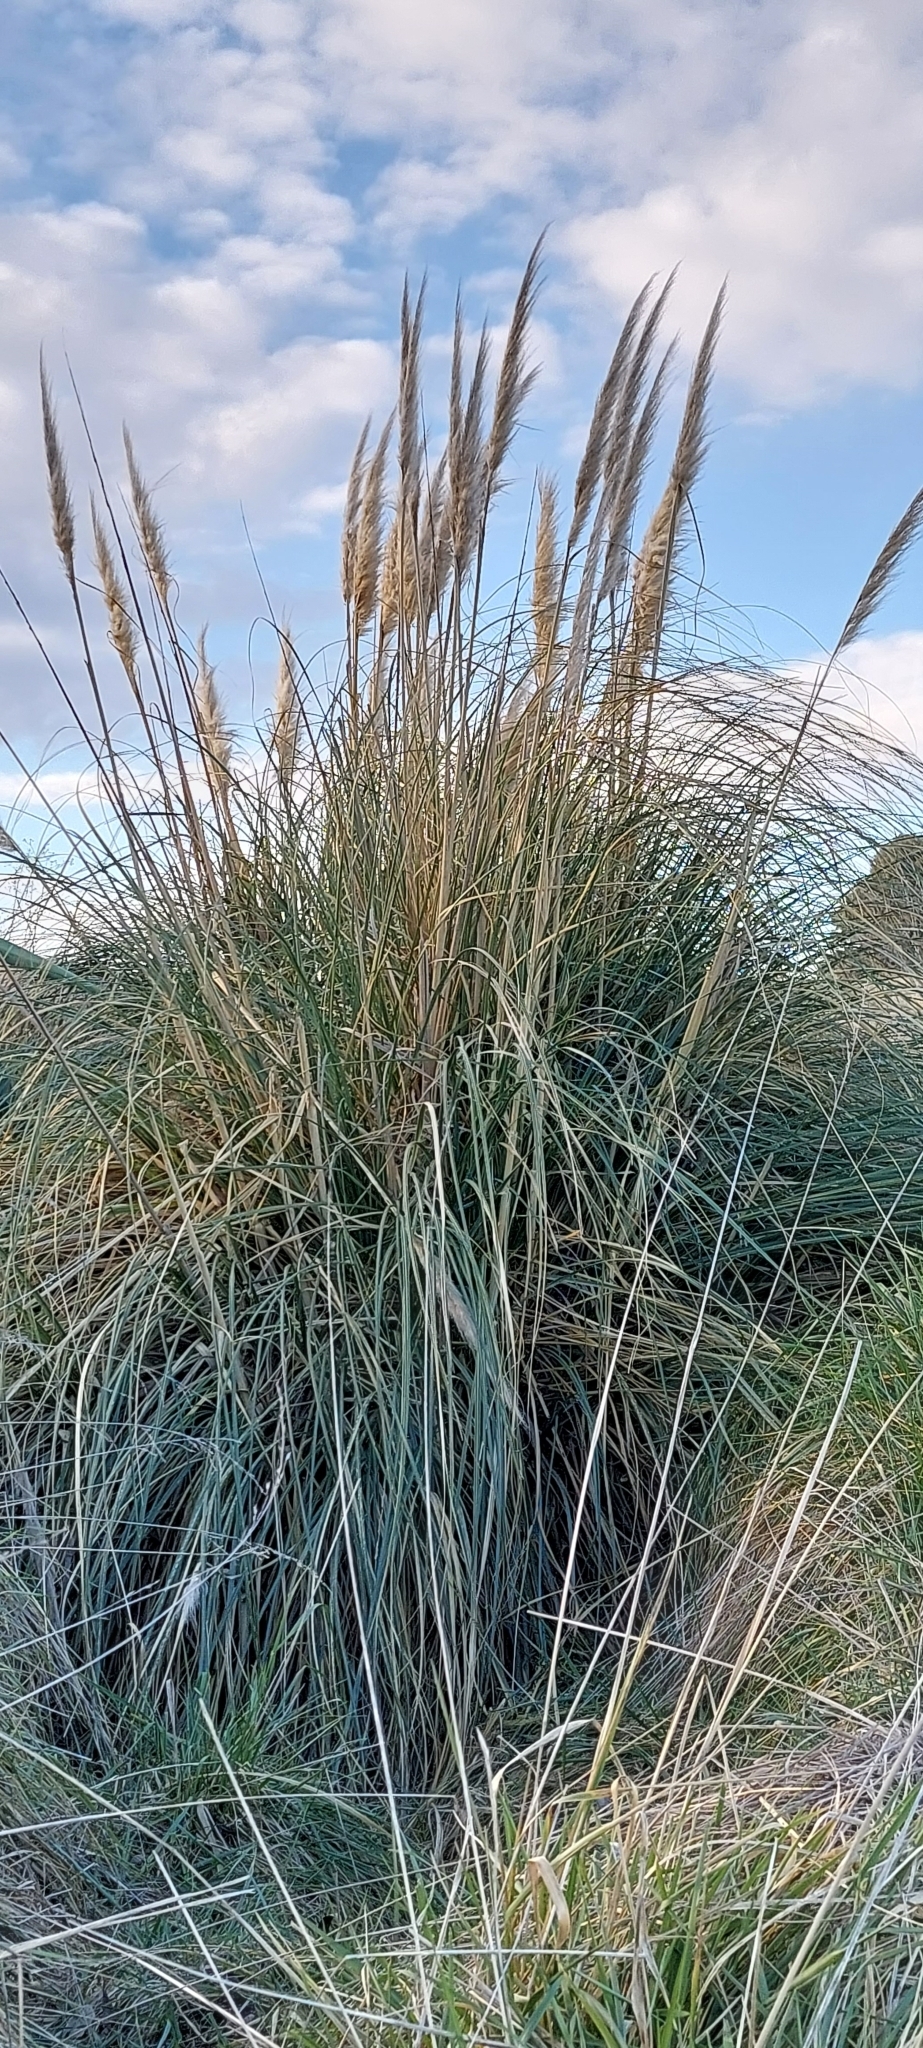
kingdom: Plantae
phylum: Tracheophyta
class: Liliopsida
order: Poales
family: Poaceae
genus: Cortaderia
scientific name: Cortaderia selloana
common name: Uruguayan pampas grass
